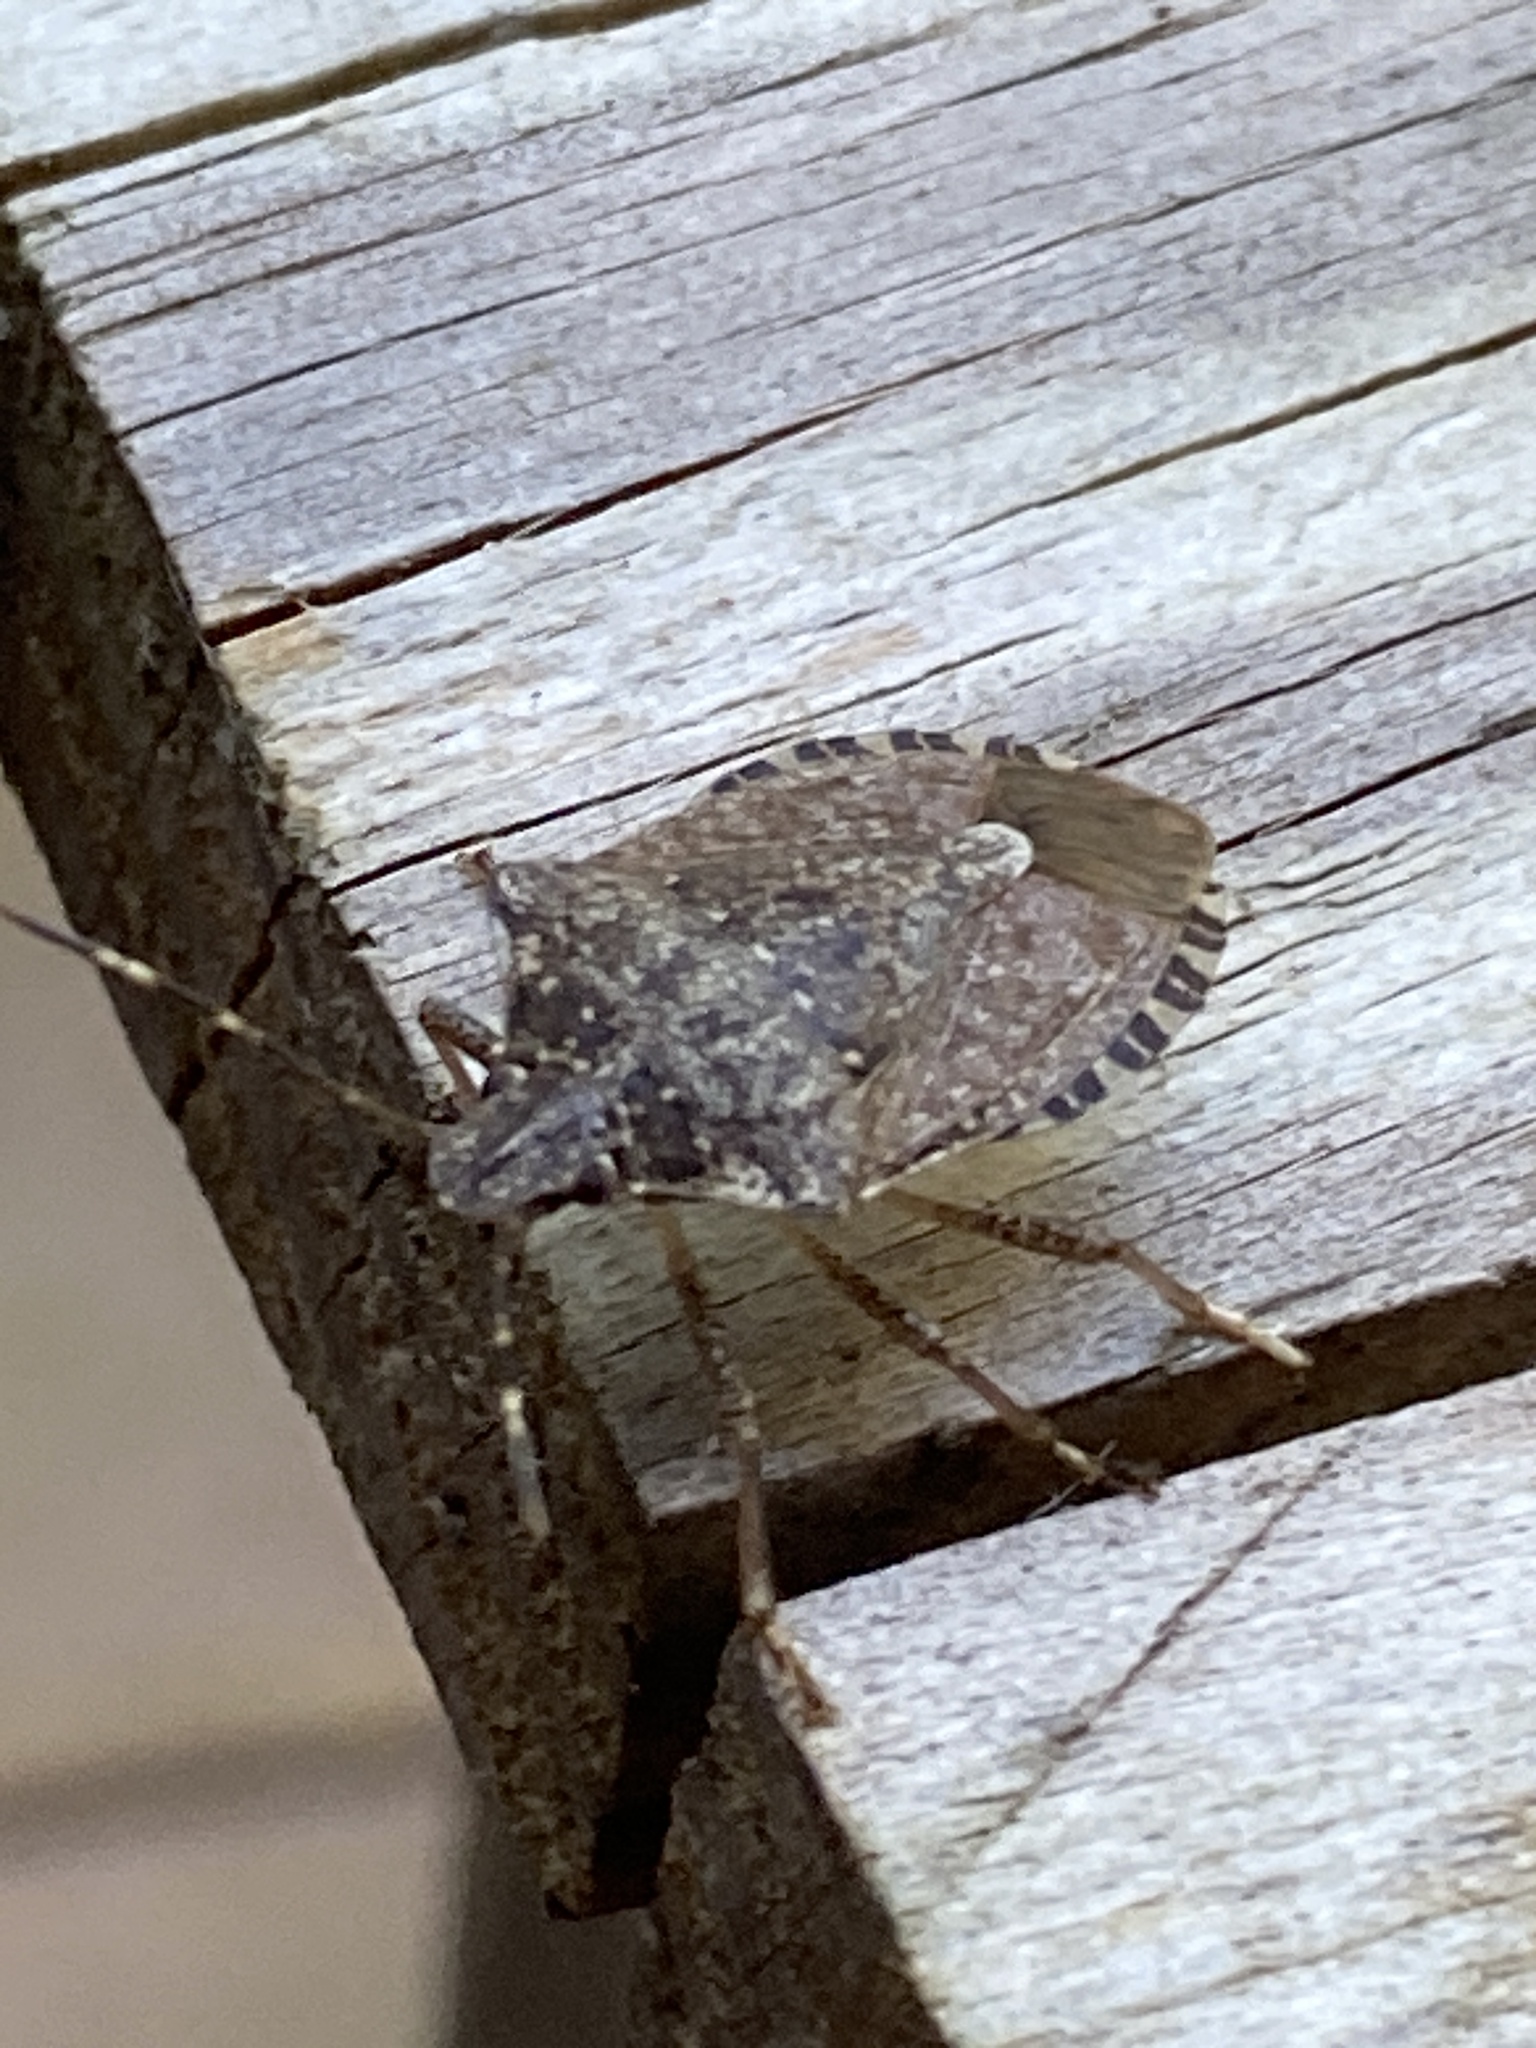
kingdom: Animalia
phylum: Arthropoda
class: Insecta
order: Hemiptera
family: Pentatomidae
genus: Halyomorpha
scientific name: Halyomorpha halys
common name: Brown marmorated stink bug
